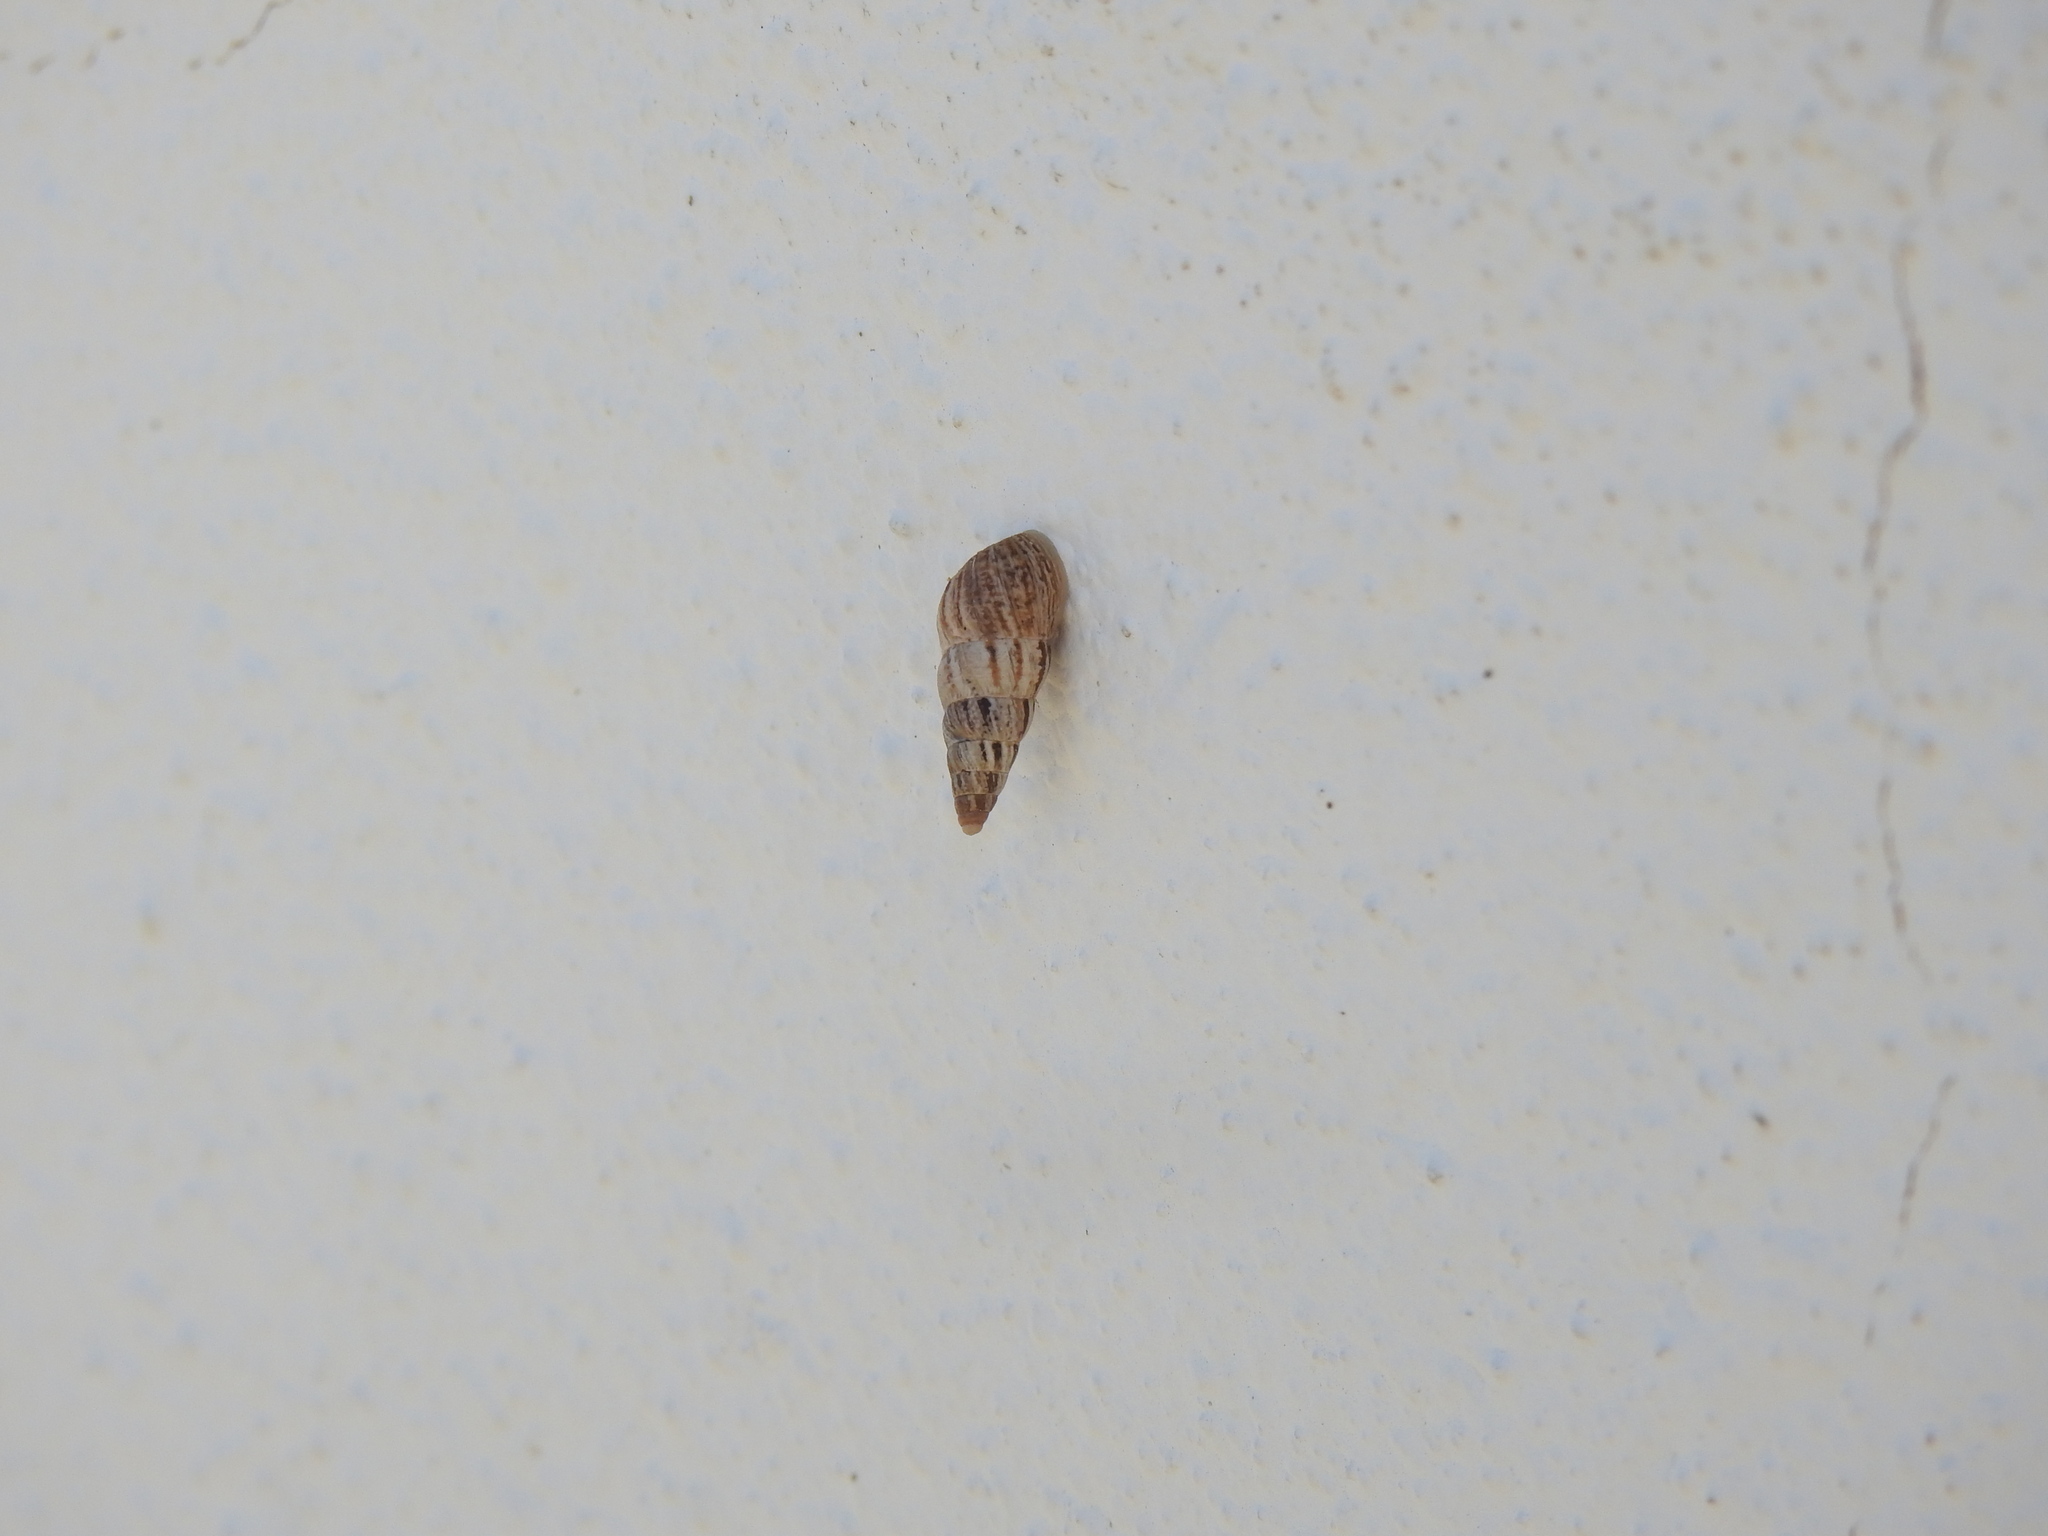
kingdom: Animalia
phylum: Mollusca
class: Gastropoda
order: Stylommatophora
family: Geomitridae
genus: Cochlicella
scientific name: Cochlicella acuta
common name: Pointed snail
